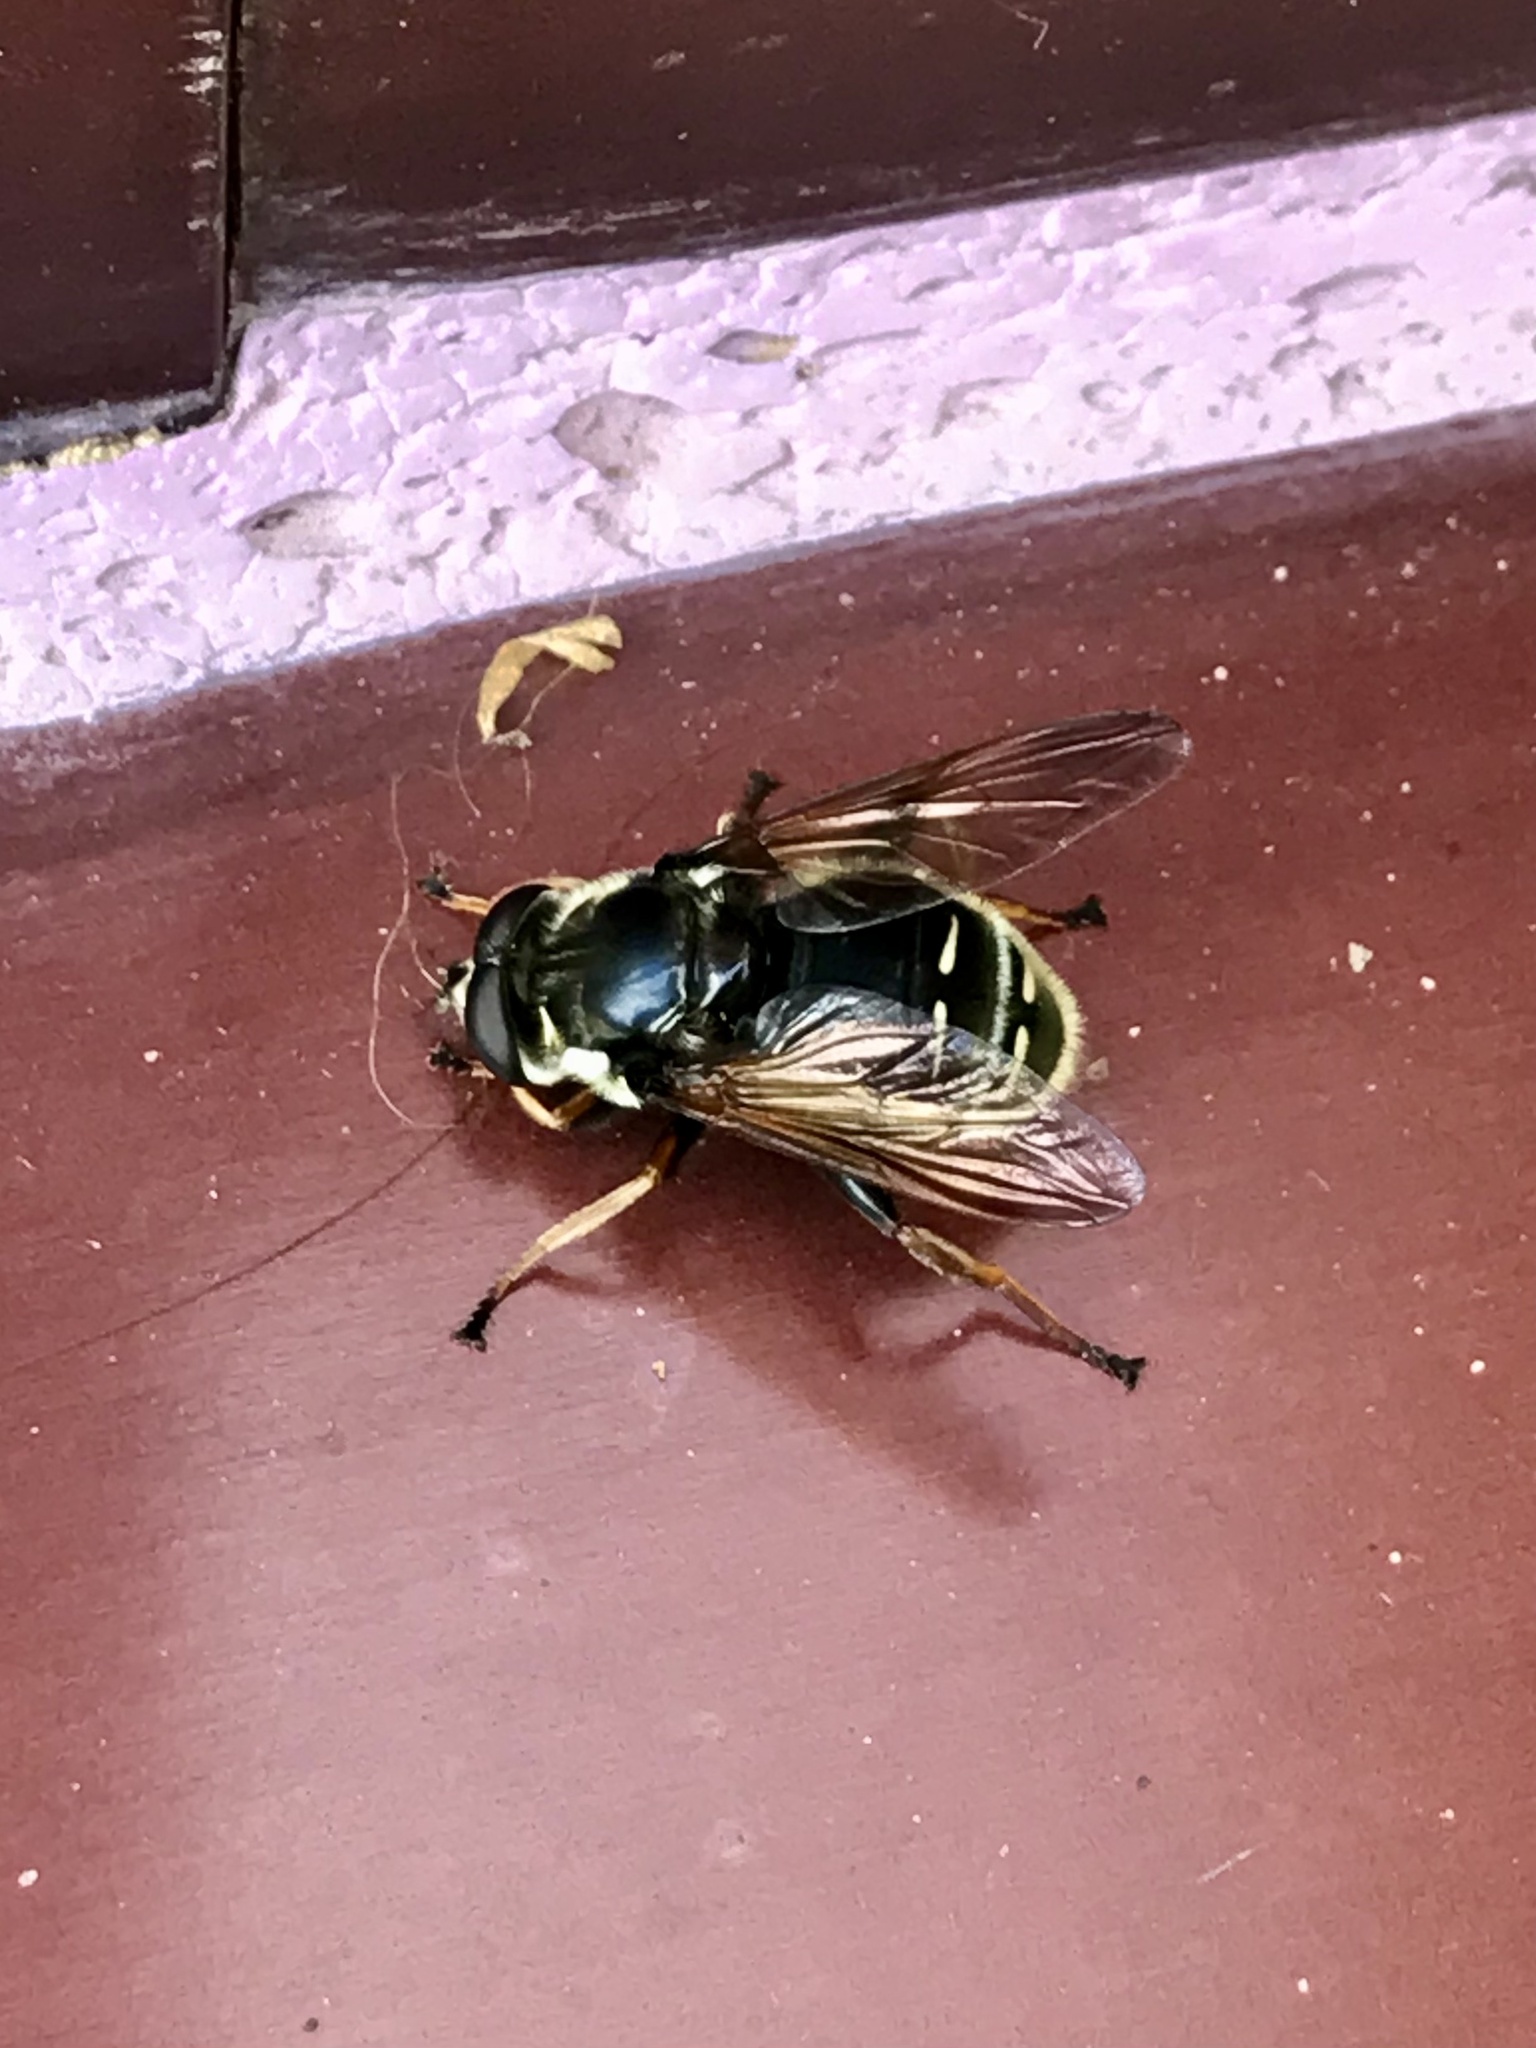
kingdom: Animalia
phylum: Arthropoda
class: Insecta
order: Diptera
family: Syrphidae
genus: Sericomyia
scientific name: Sericomyia militaris
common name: Narrow-banded pond fly
